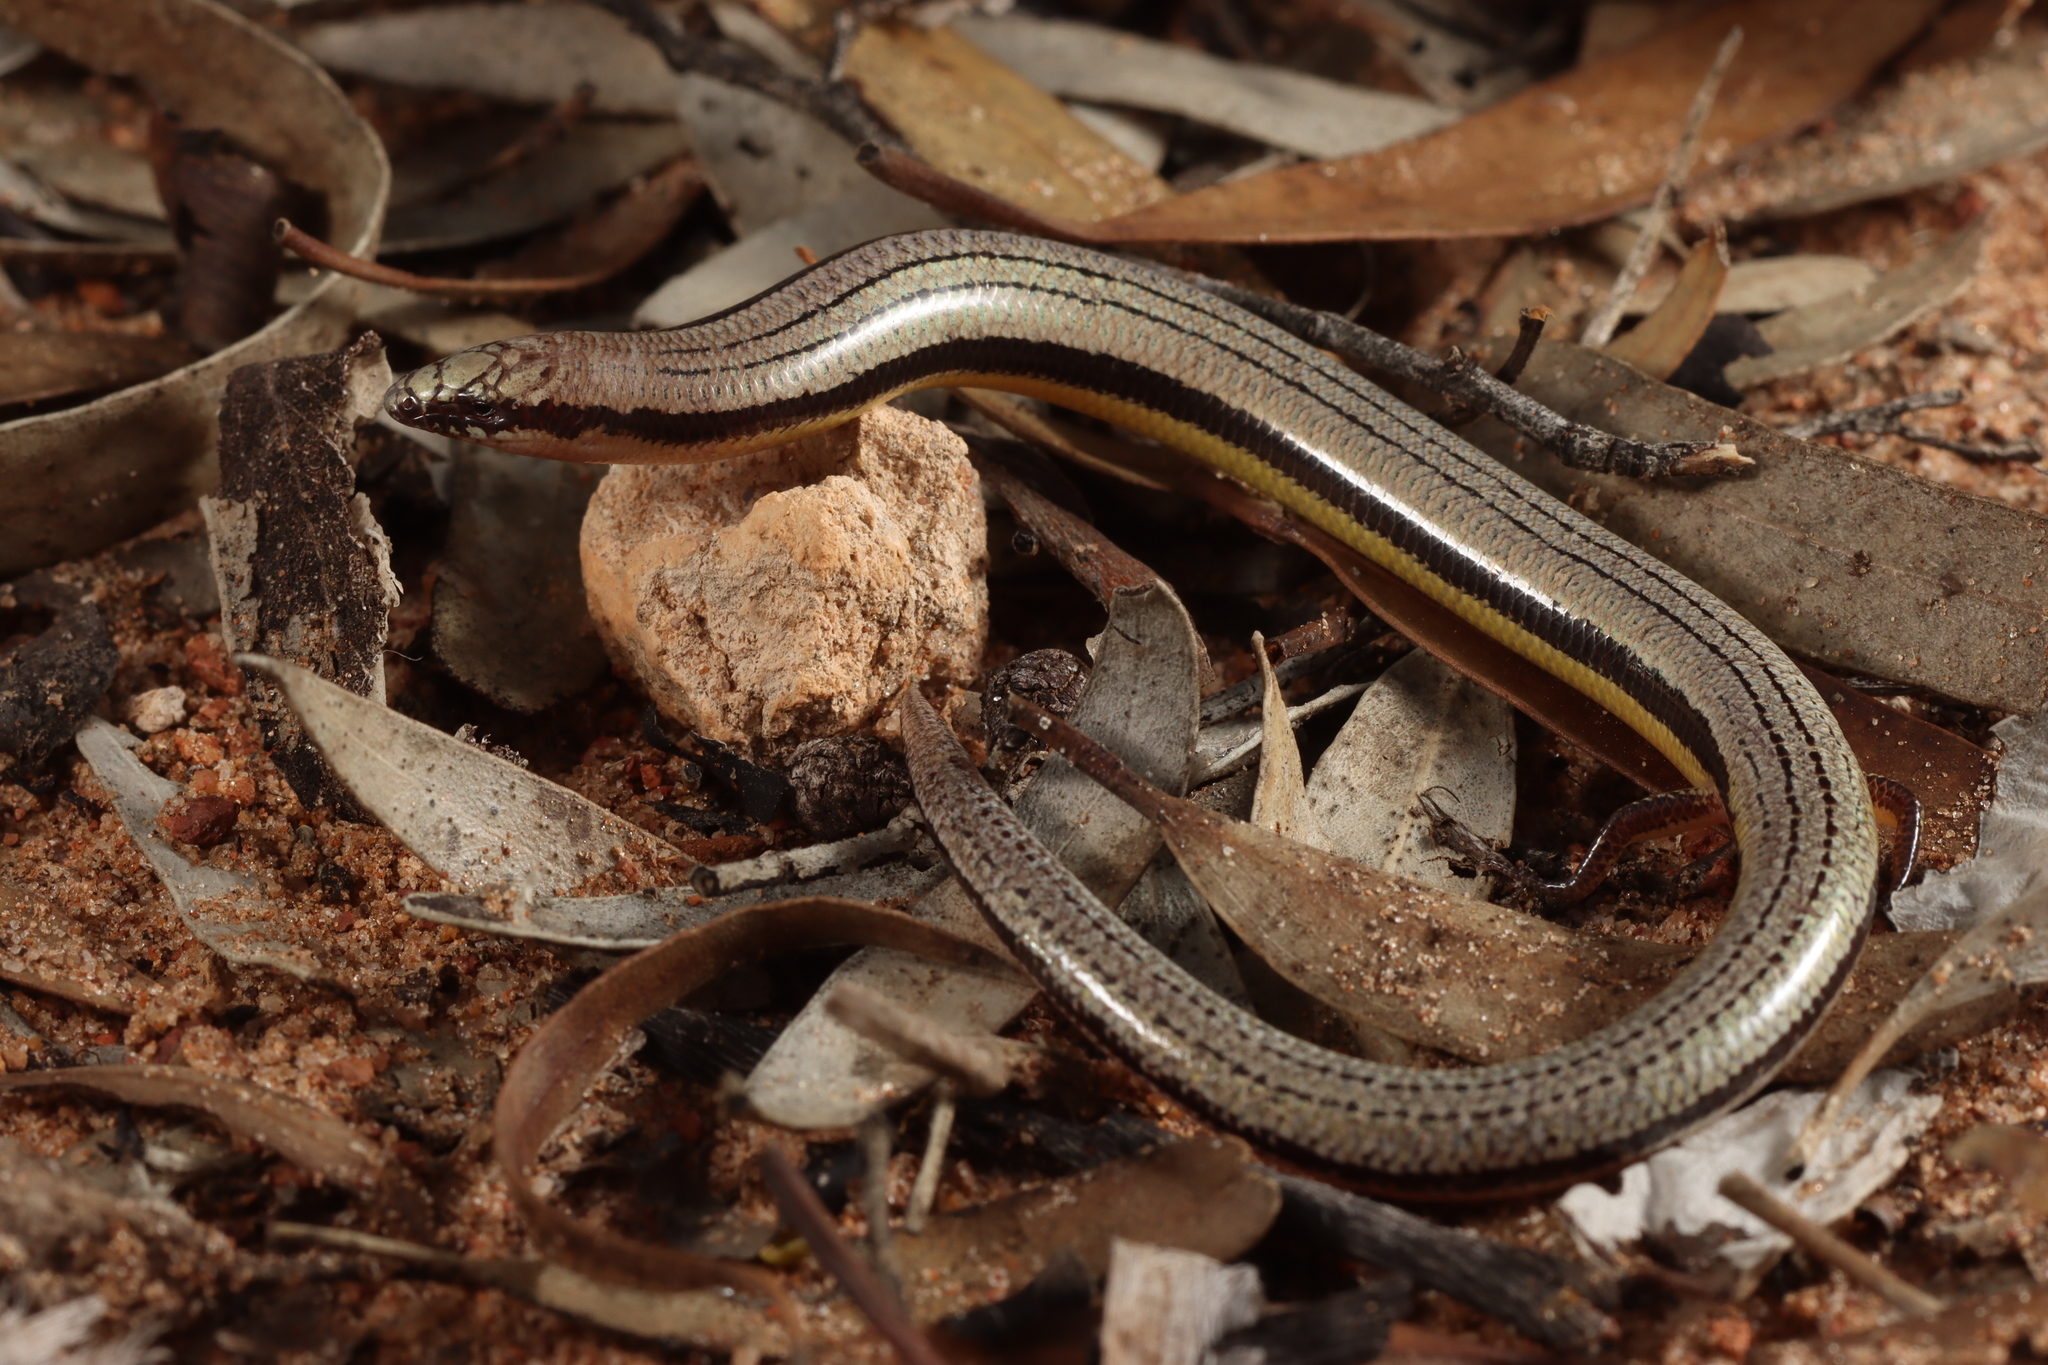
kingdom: Animalia
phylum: Chordata
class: Squamata
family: Scincidae
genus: Lerista
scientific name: Lerista edwardsae
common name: Myall slider
